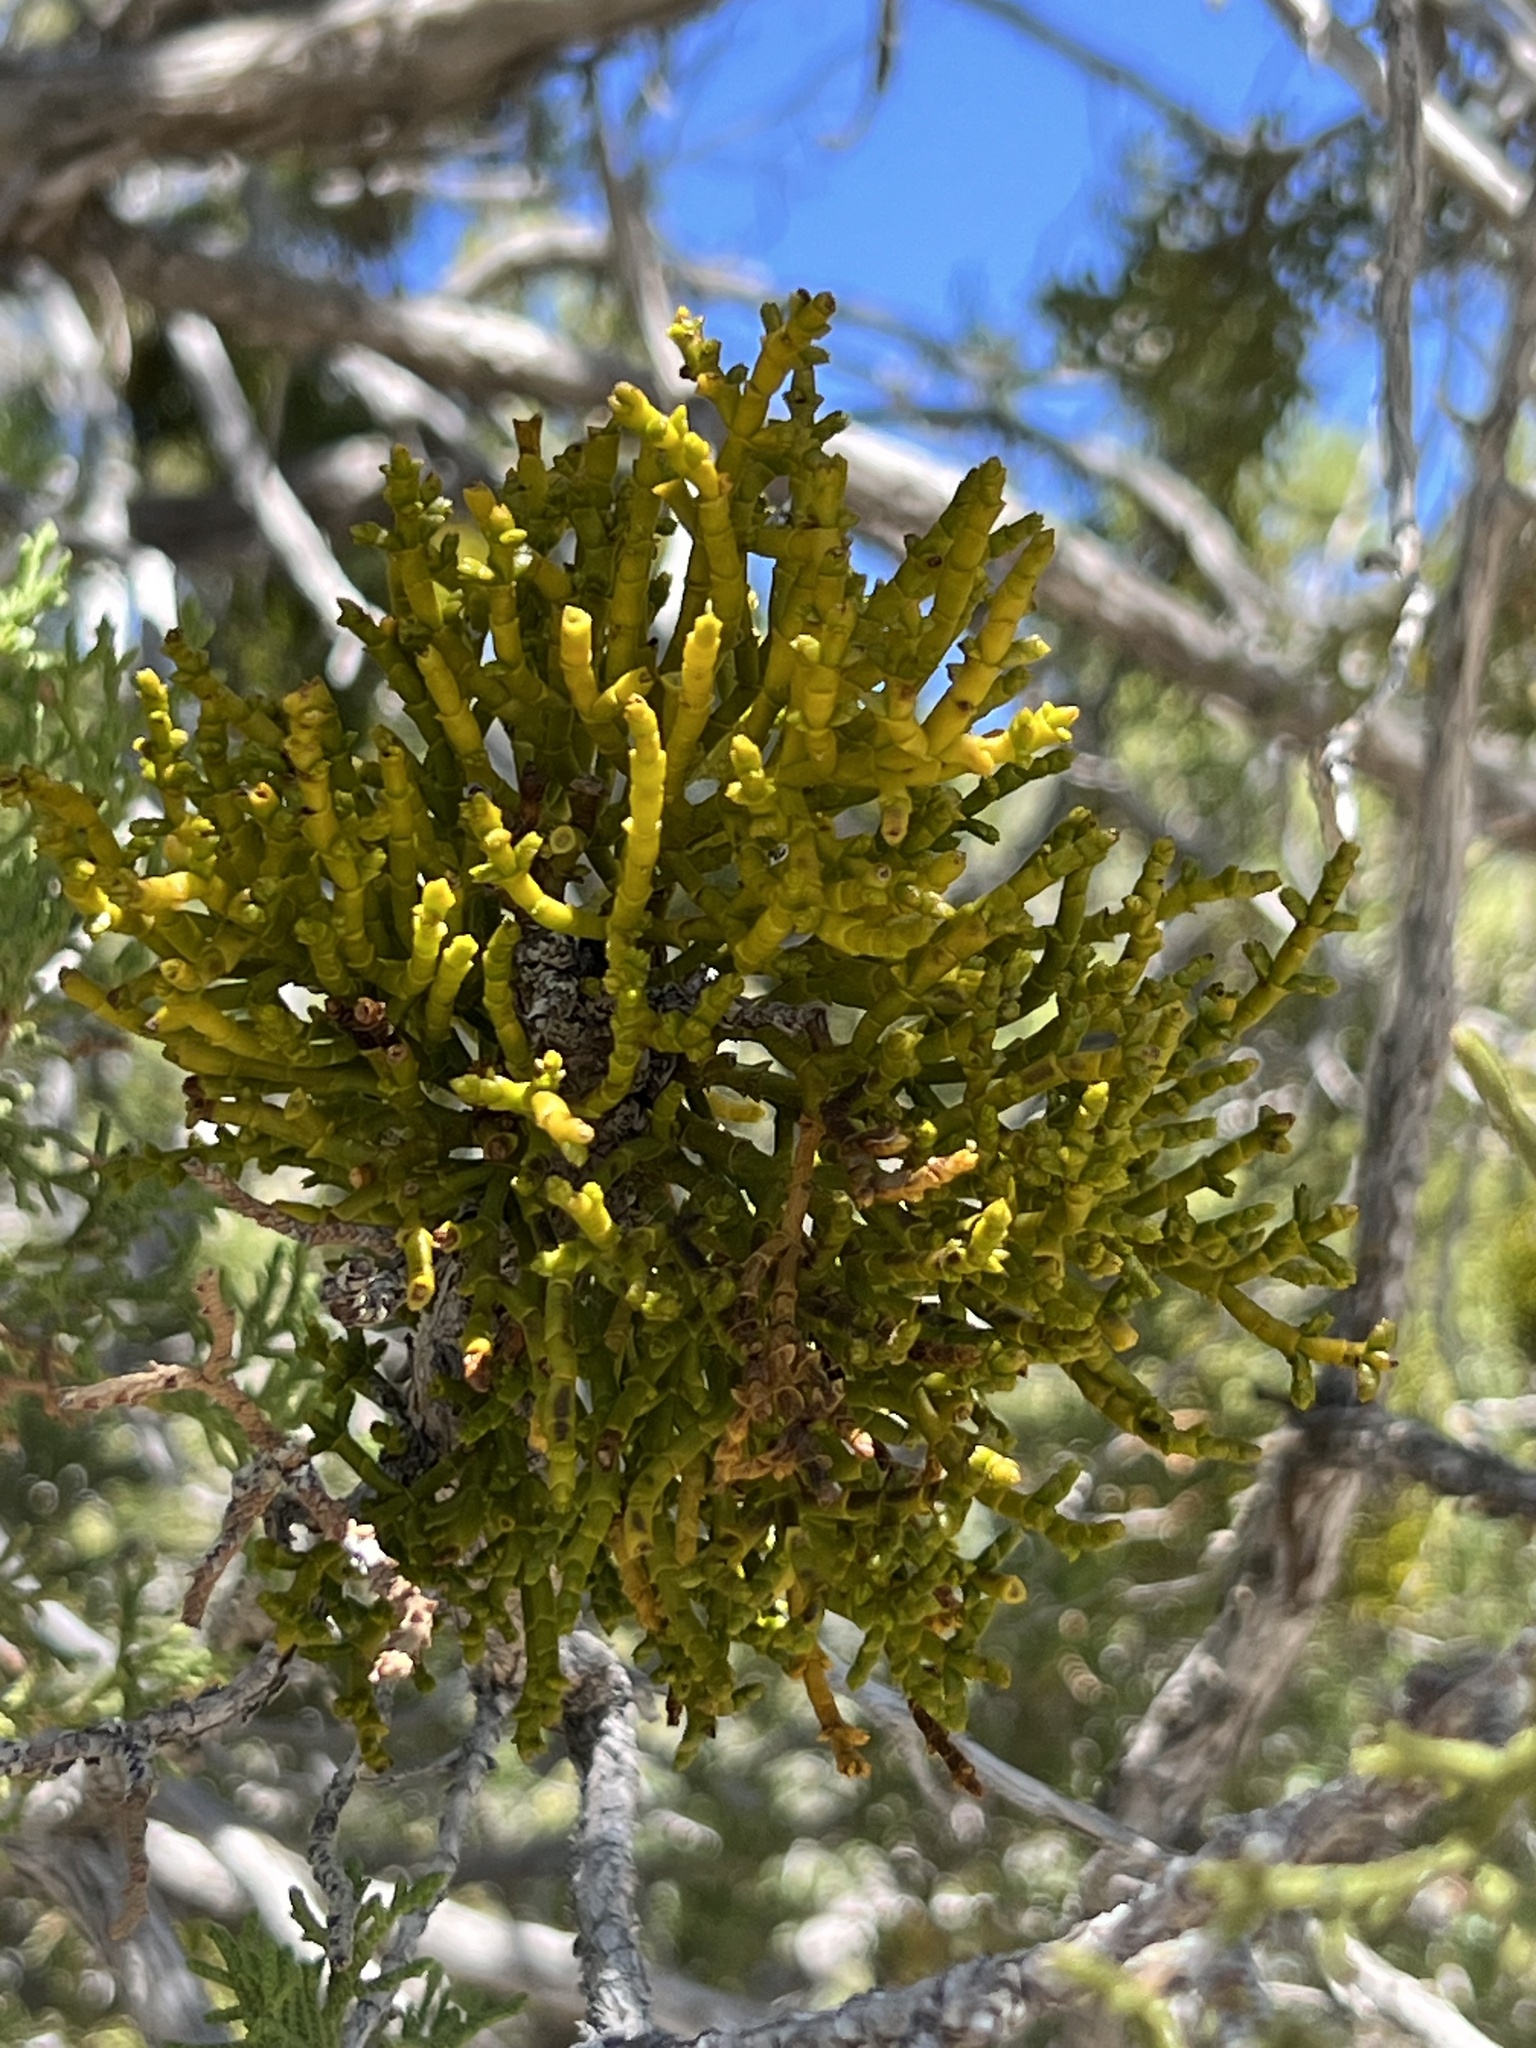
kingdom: Plantae
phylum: Tracheophyta
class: Magnoliopsida
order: Santalales
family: Viscaceae
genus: Phoradendron
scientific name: Phoradendron juniperinum
